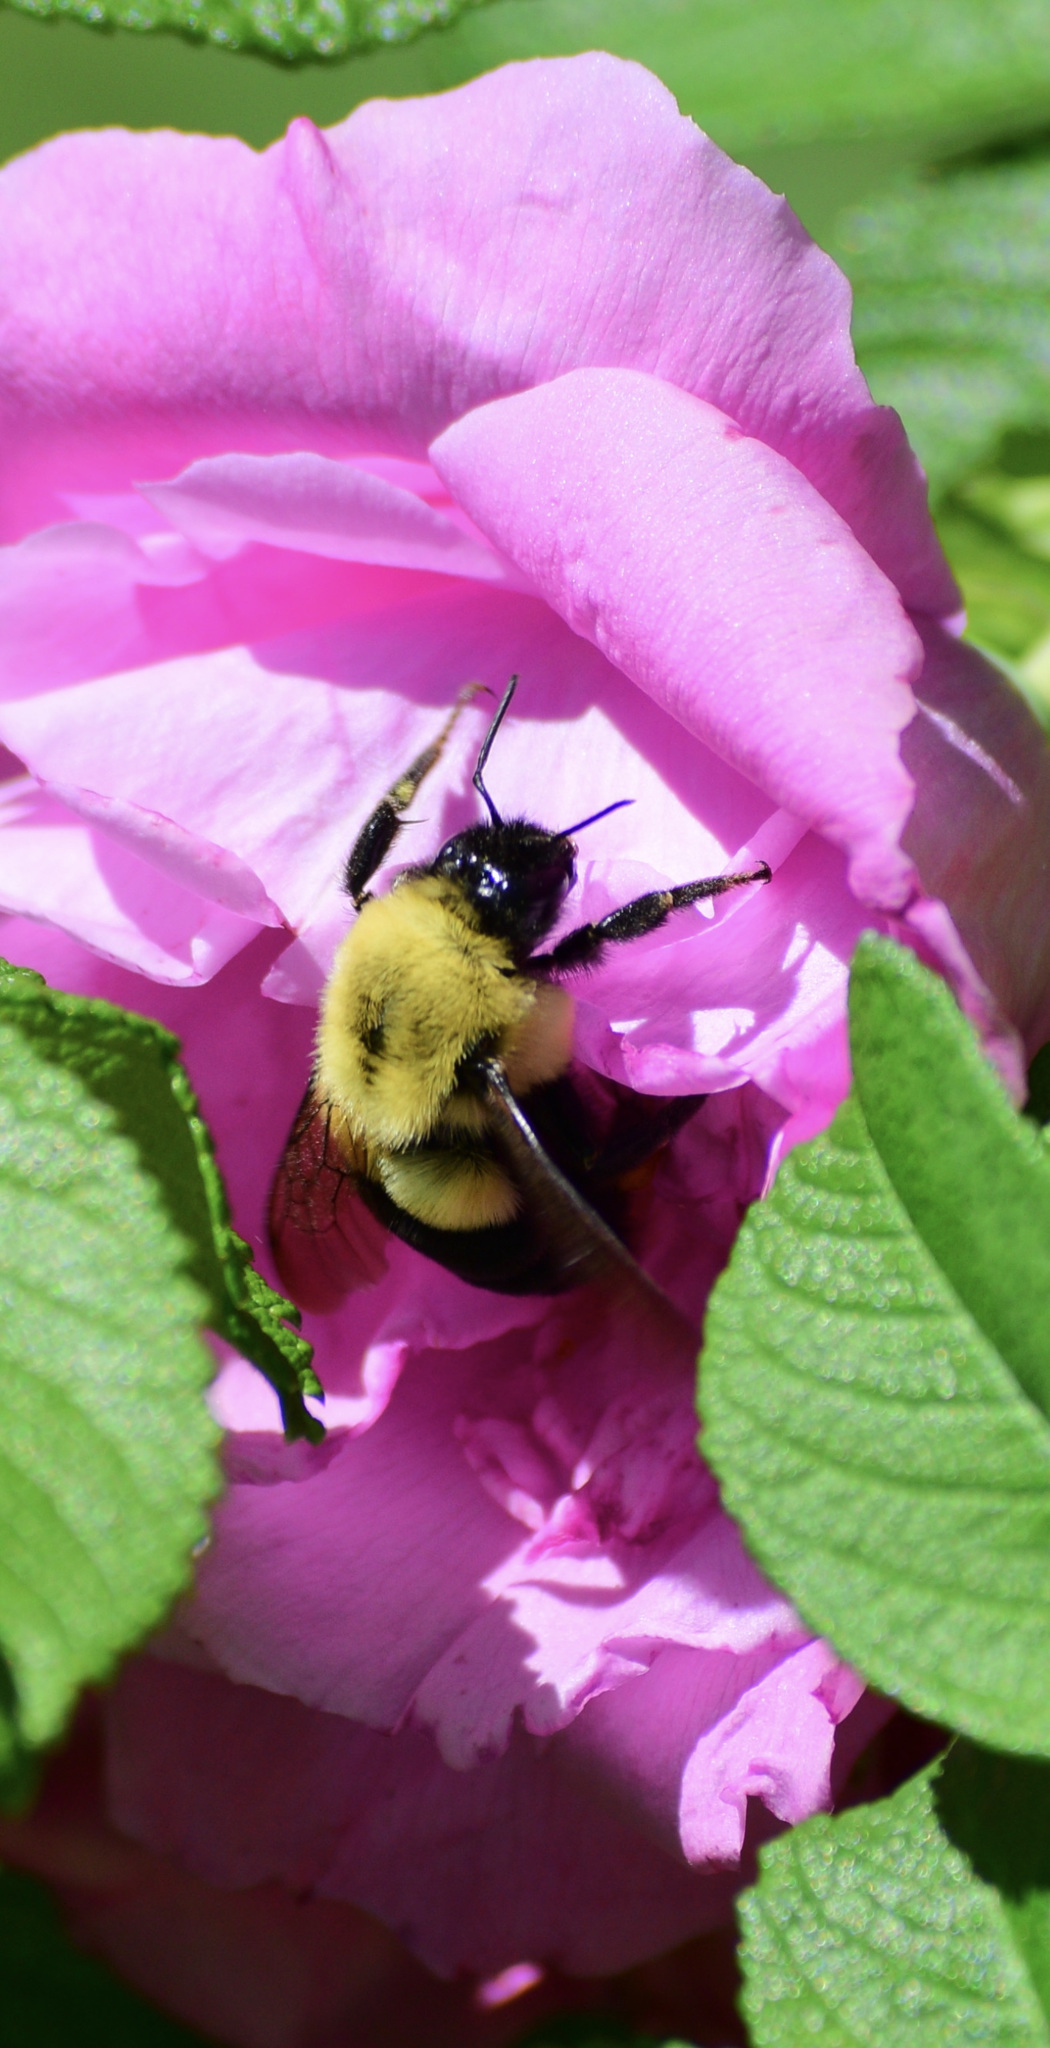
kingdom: Animalia
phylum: Arthropoda
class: Insecta
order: Hymenoptera
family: Apidae
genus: Bombus
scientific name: Bombus impatiens
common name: Common eastern bumble bee
